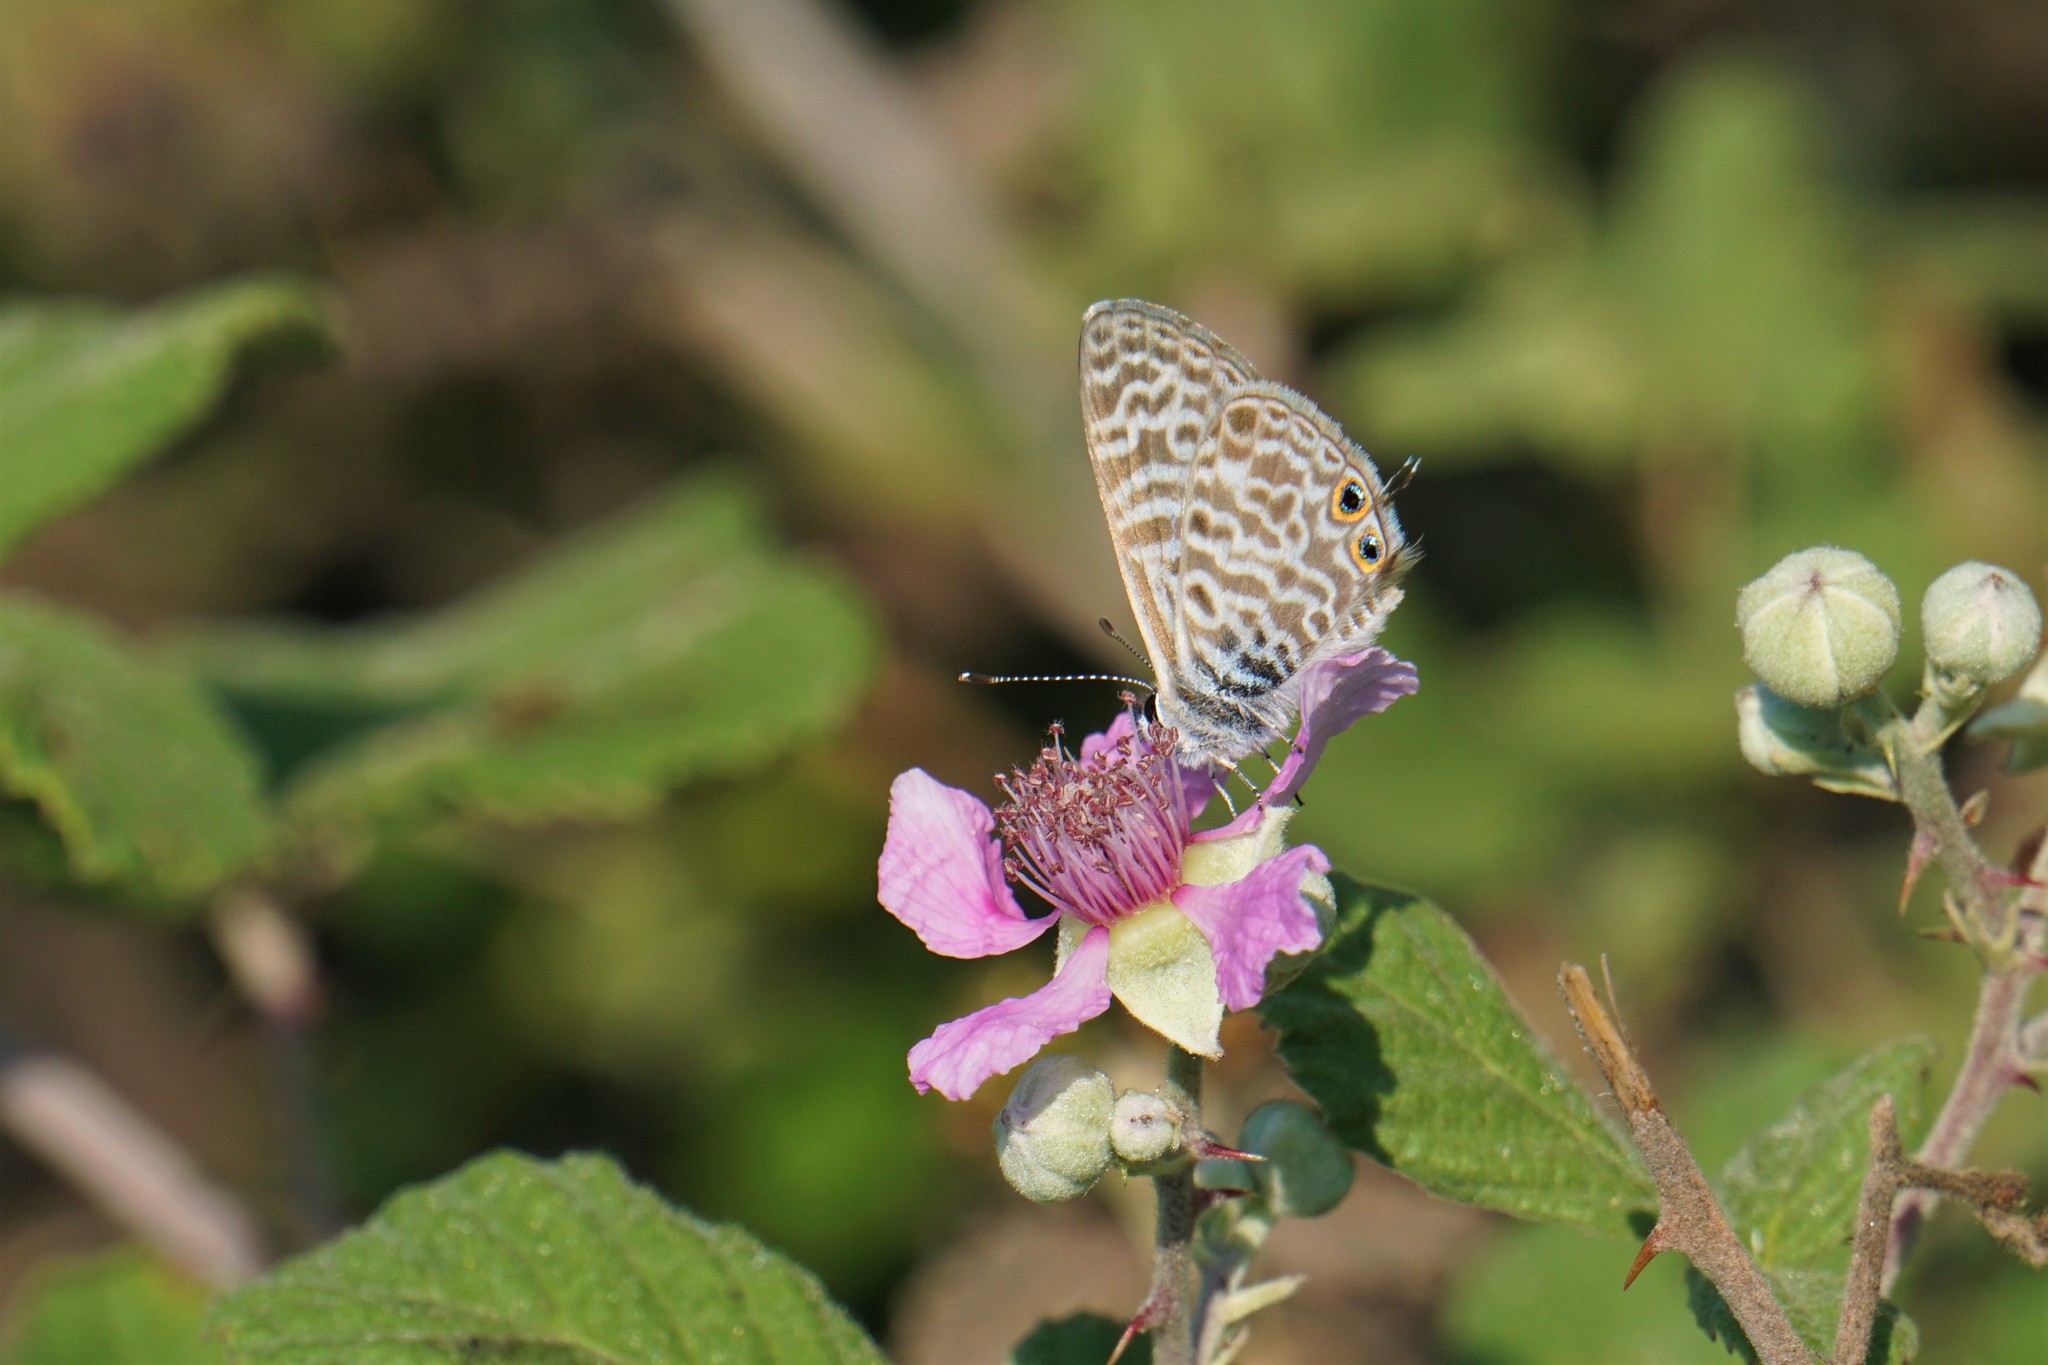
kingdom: Animalia
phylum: Arthropoda
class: Insecta
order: Lepidoptera
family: Lycaenidae
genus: Leptotes
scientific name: Leptotes pirithous
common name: Lang's short-tailed blue
